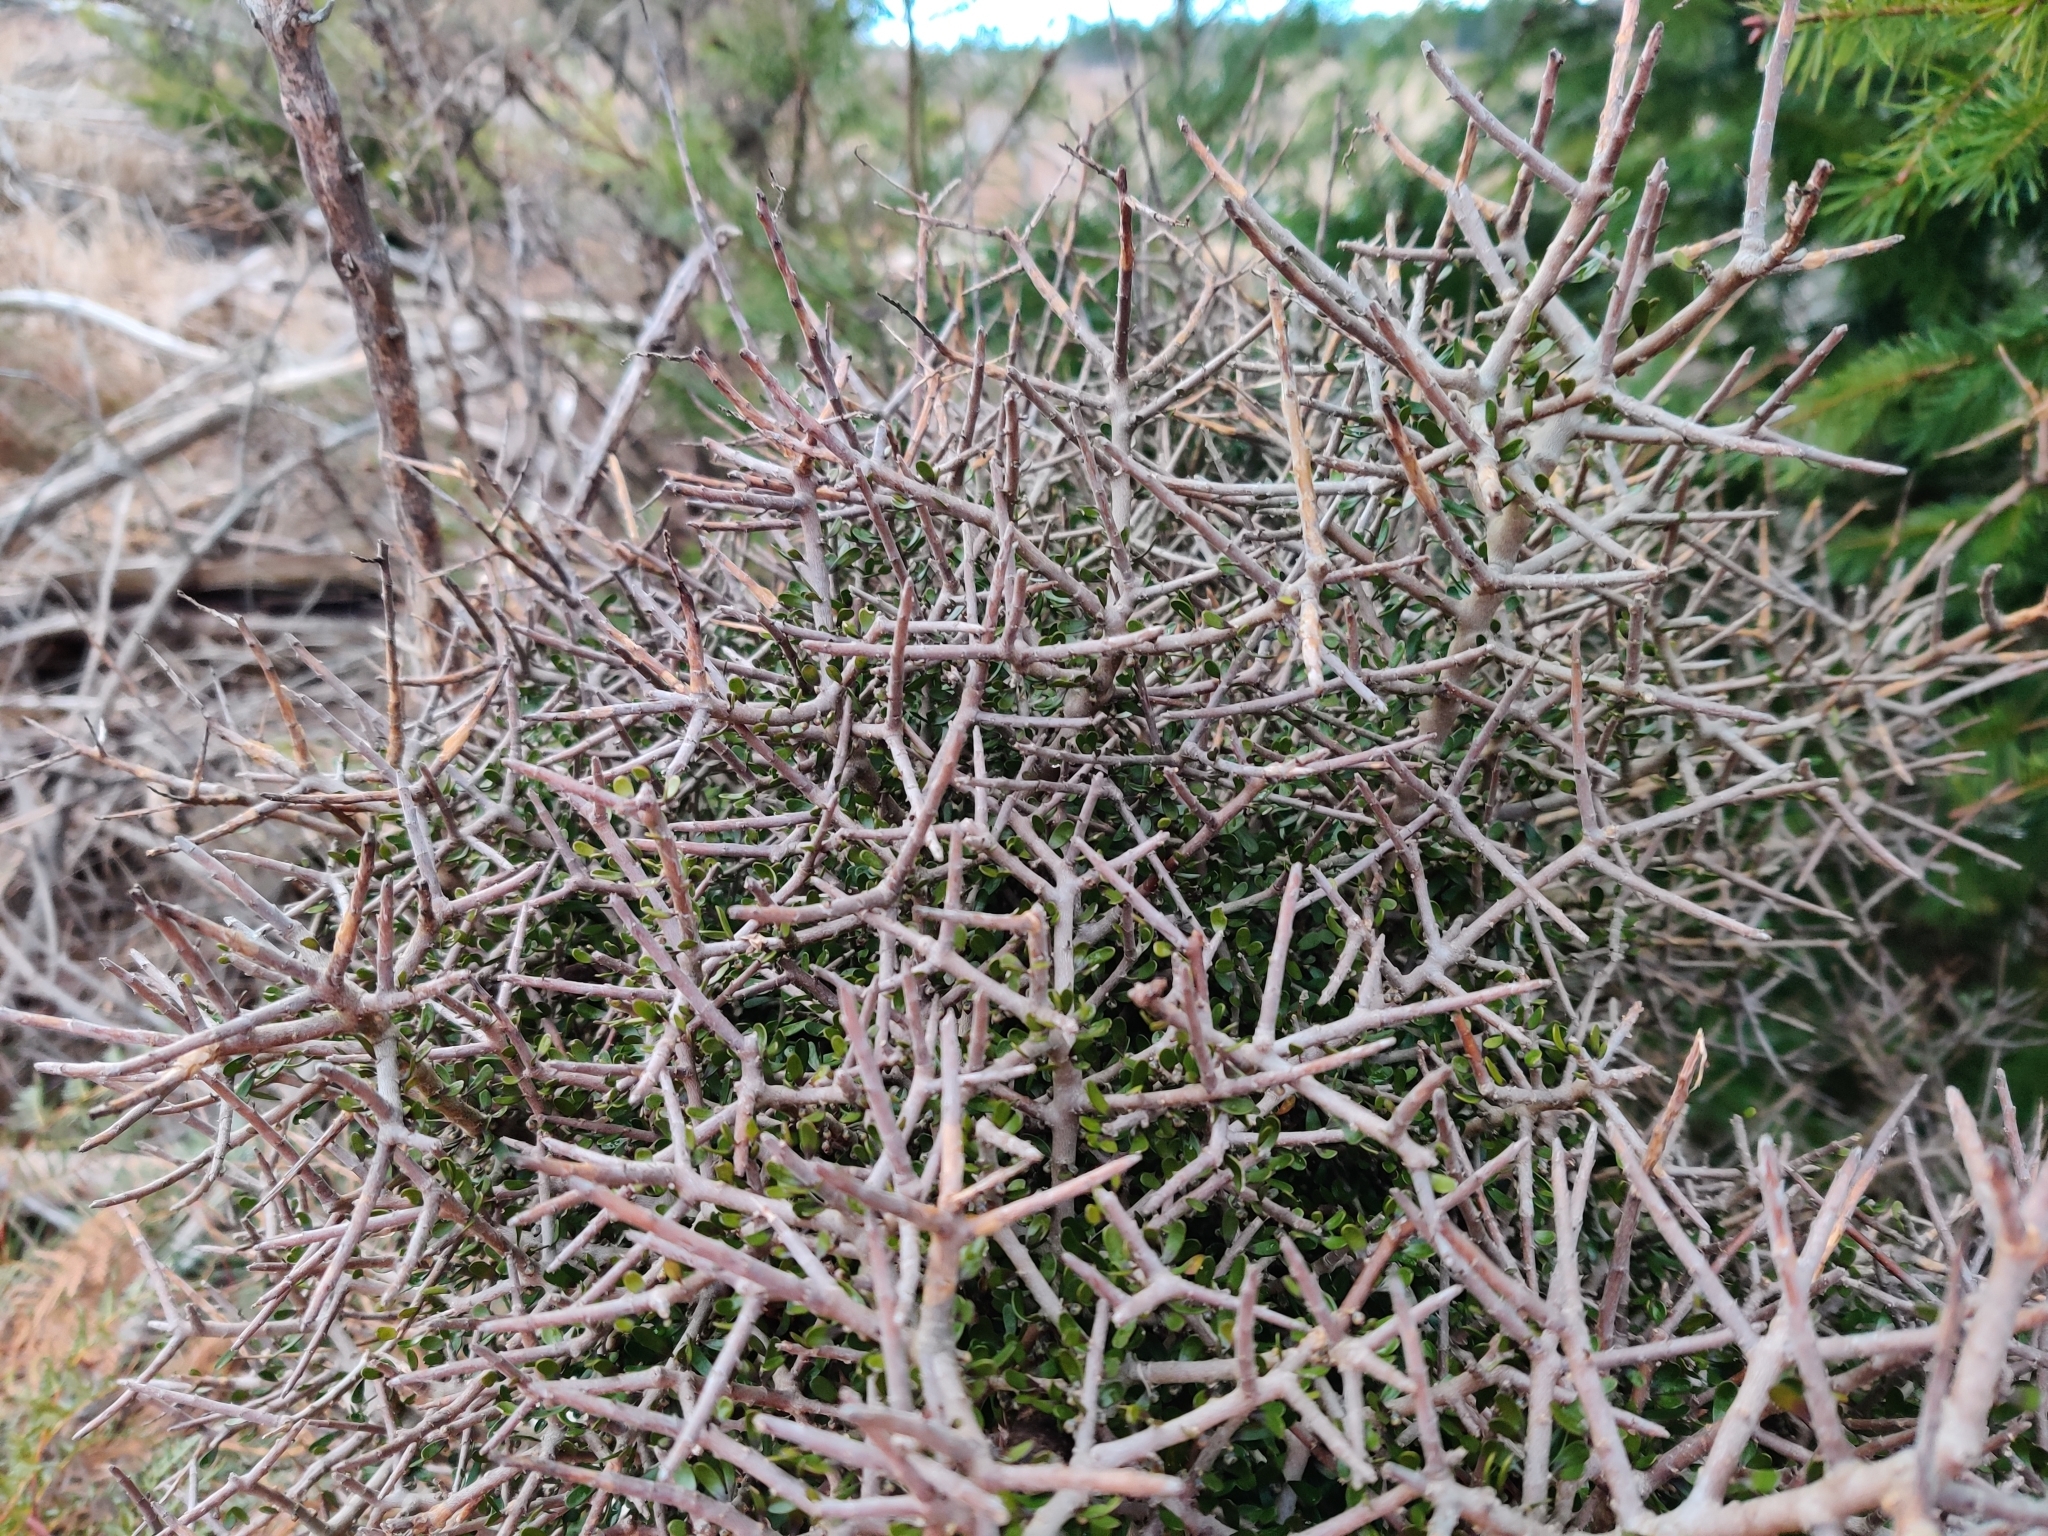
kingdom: Plantae
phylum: Tracheophyta
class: Magnoliopsida
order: Malpighiales
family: Violaceae
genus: Melicytus
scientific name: Melicytus alpinus
